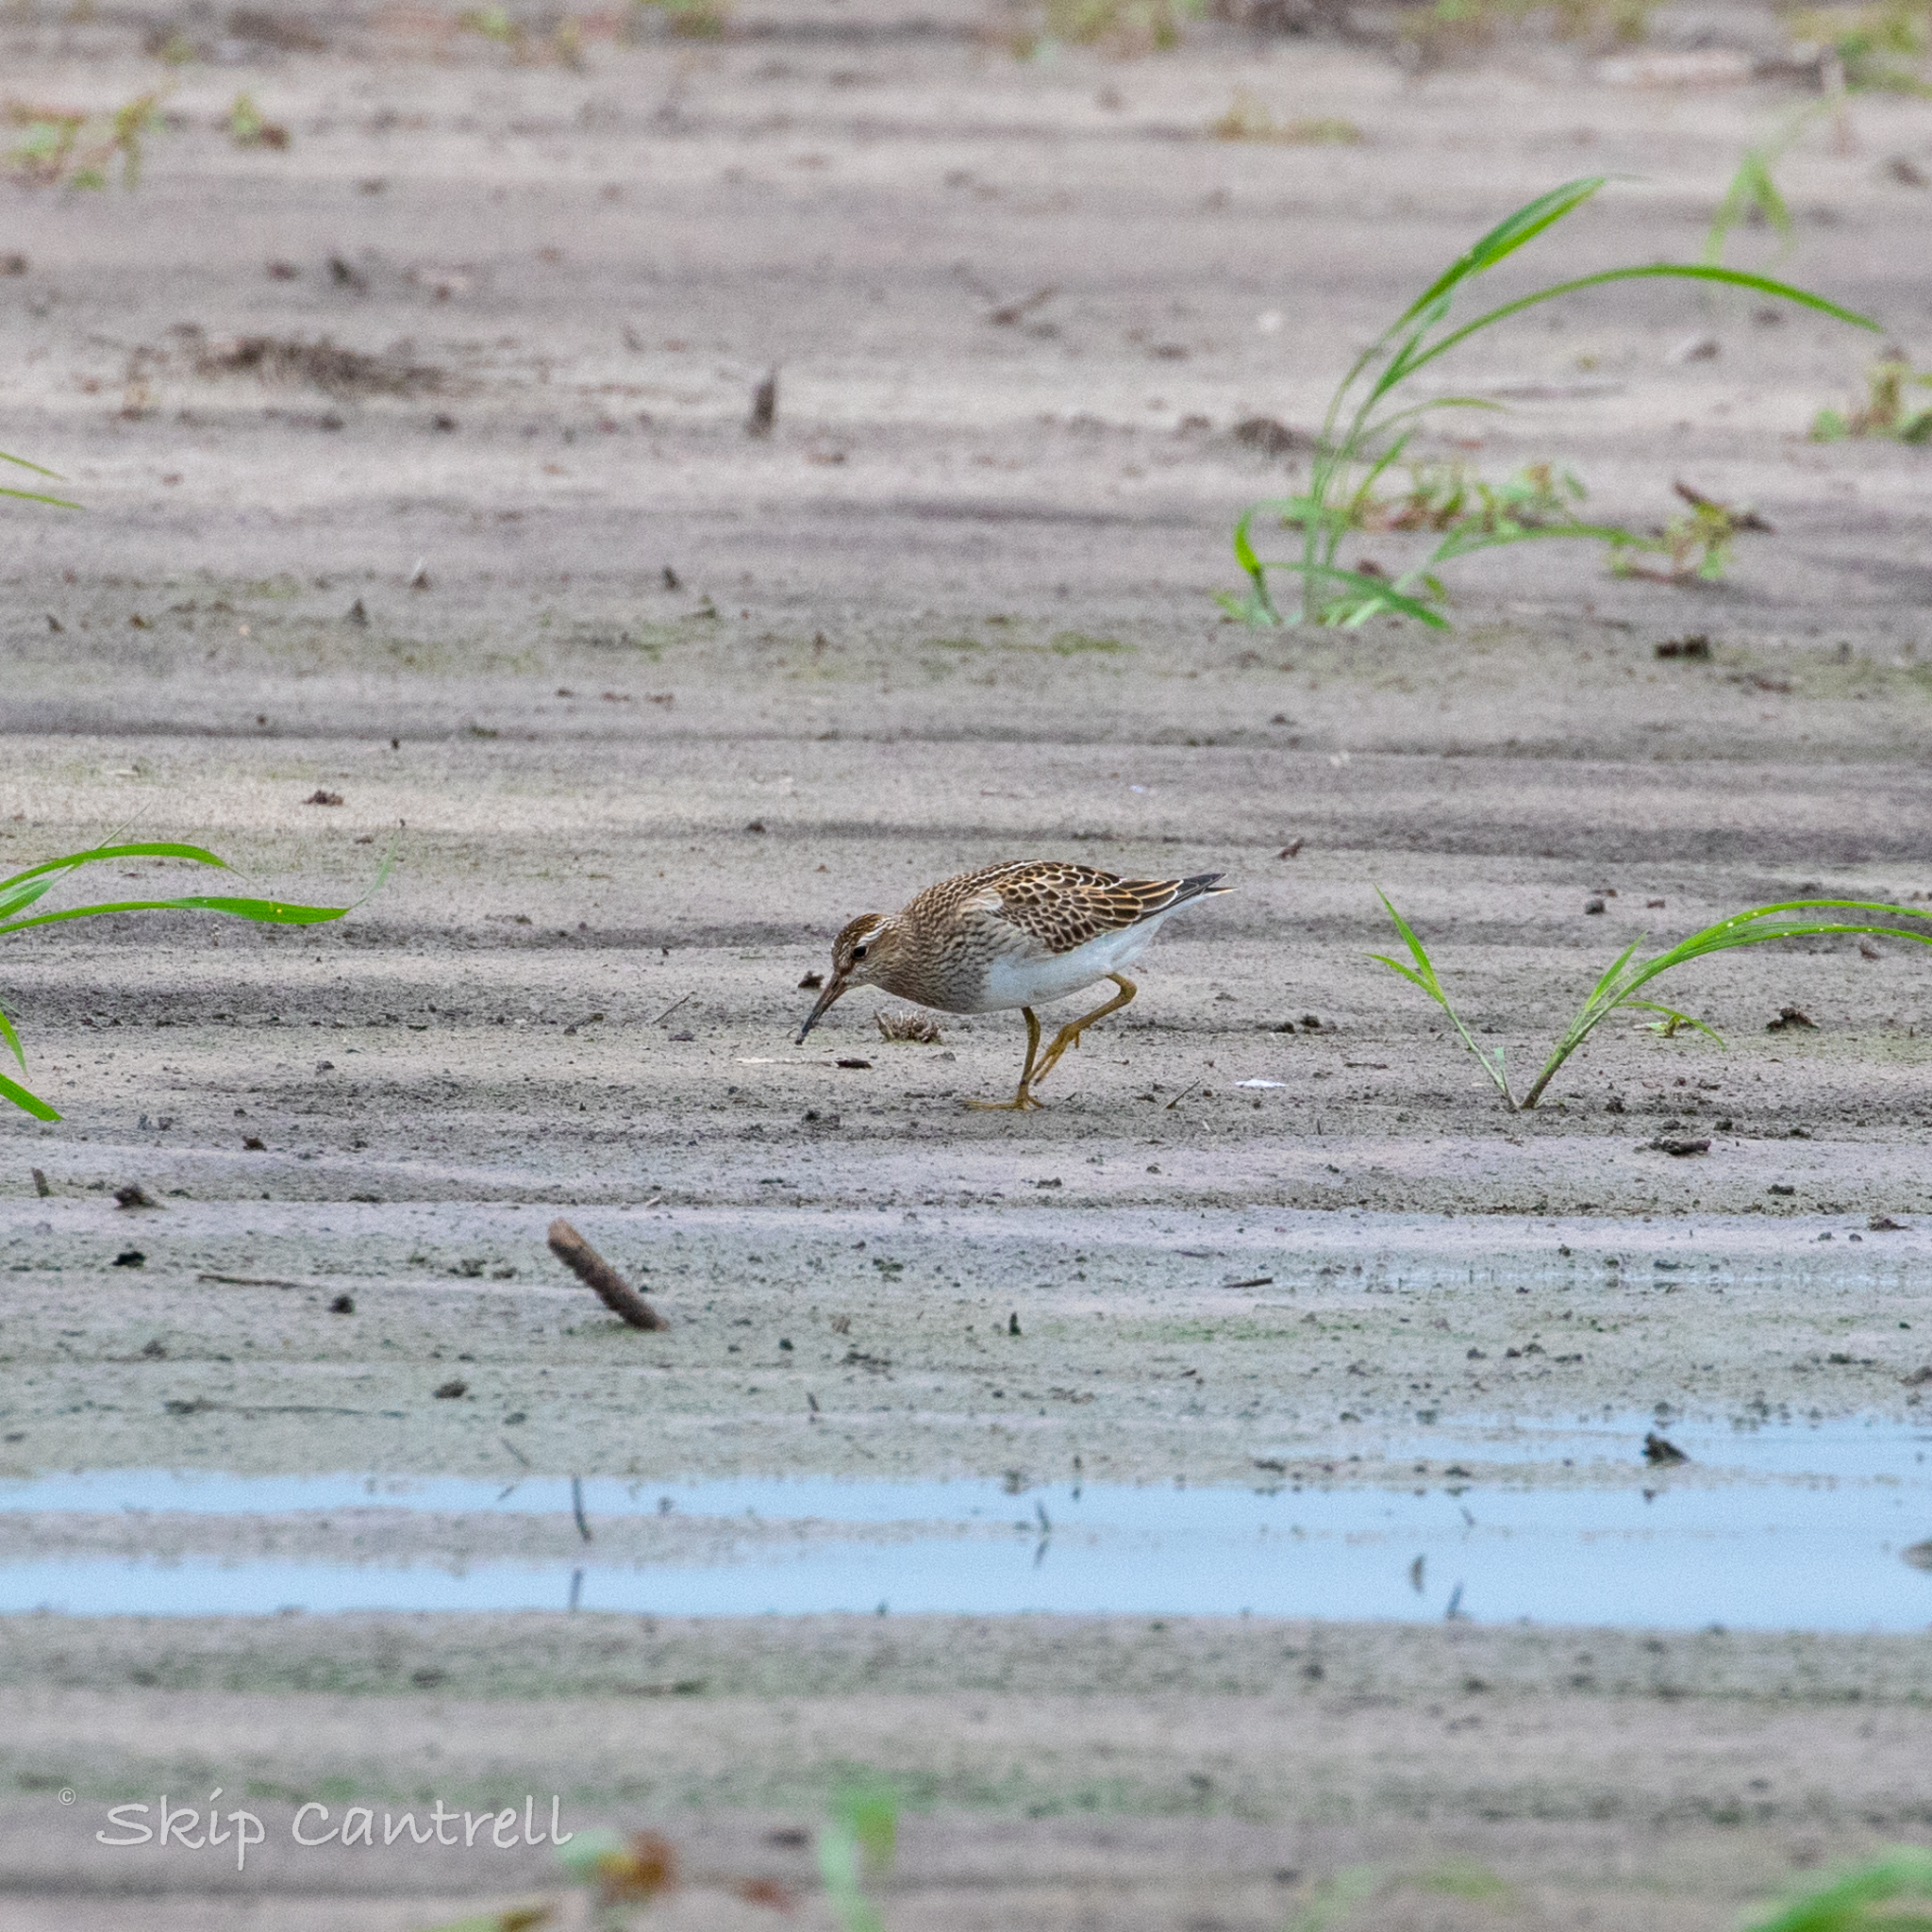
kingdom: Animalia
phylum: Chordata
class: Aves
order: Charadriiformes
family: Scolopacidae
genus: Calidris
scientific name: Calidris melanotos
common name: Pectoral sandpiper
